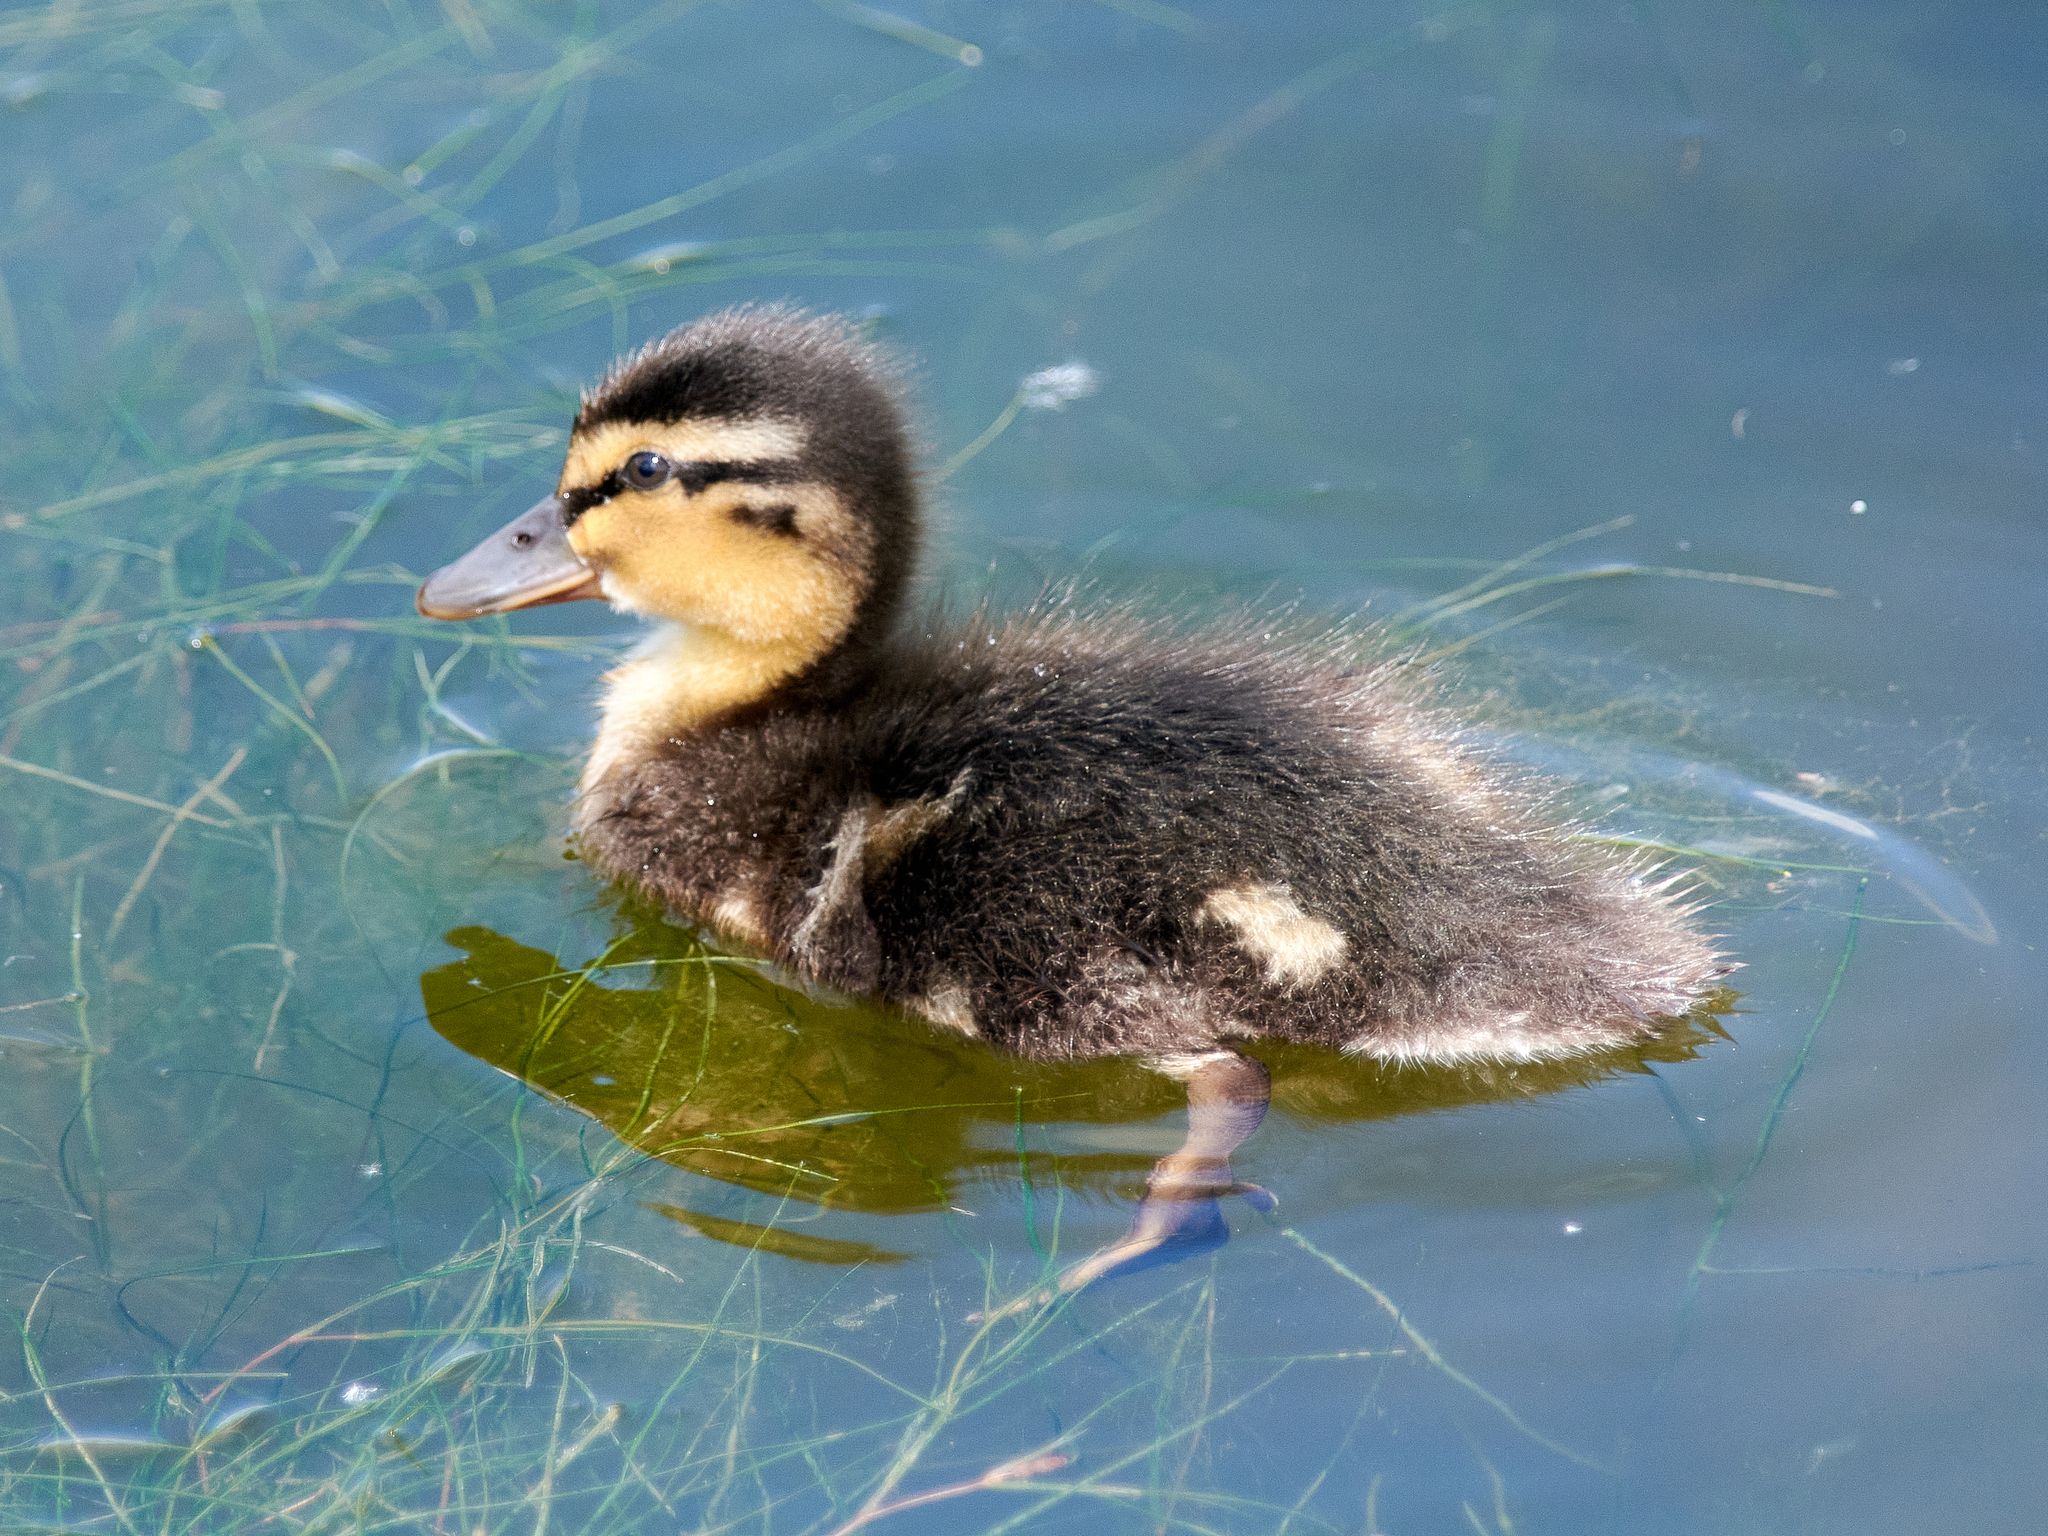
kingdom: Animalia
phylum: Chordata
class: Aves
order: Anseriformes
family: Anatidae
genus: Anas
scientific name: Anas platyrhynchos
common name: Mallard
